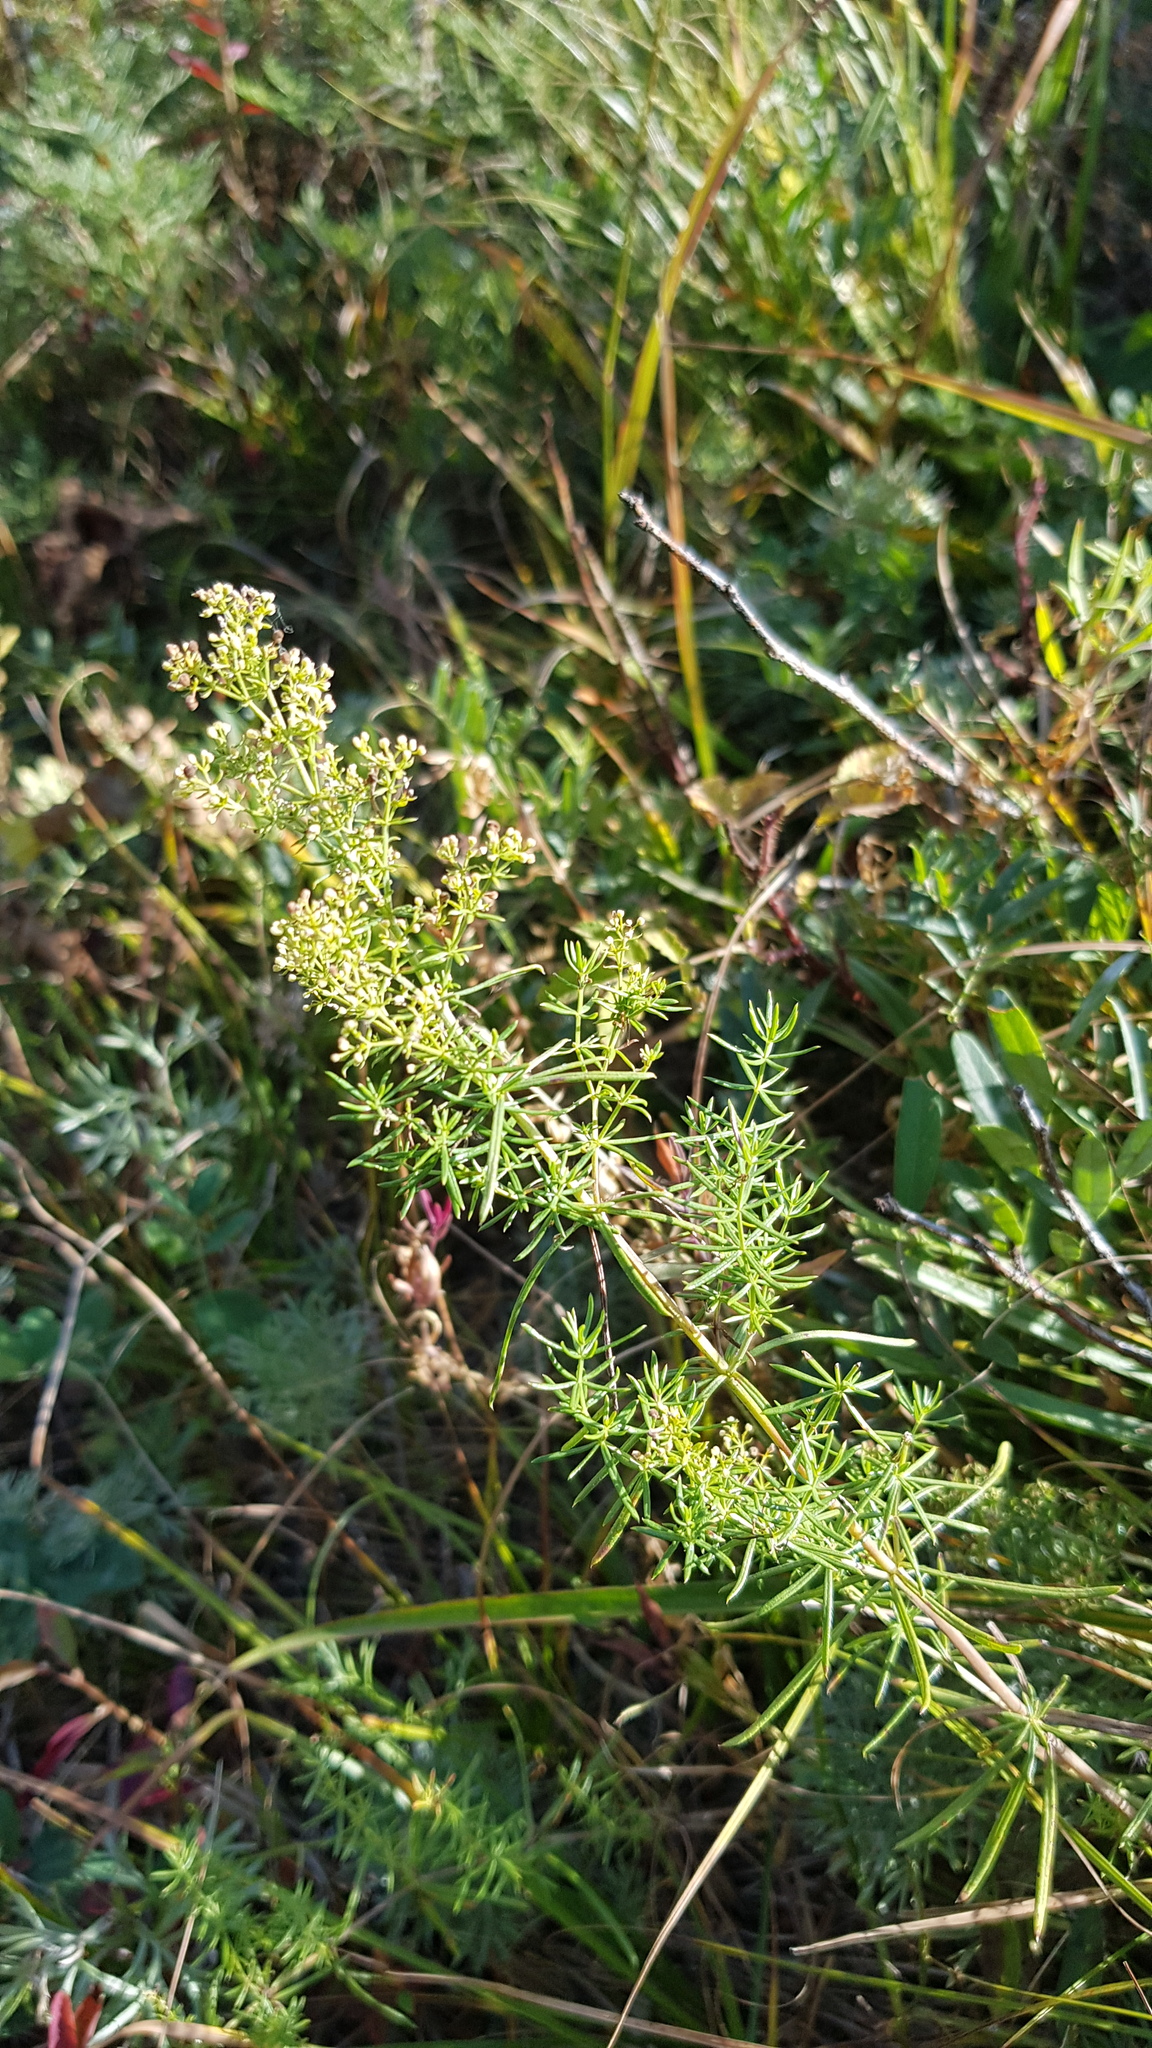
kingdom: Plantae
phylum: Tracheophyta
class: Magnoliopsida
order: Gentianales
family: Rubiaceae
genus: Galium
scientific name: Galium verum
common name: Lady's bedstraw
